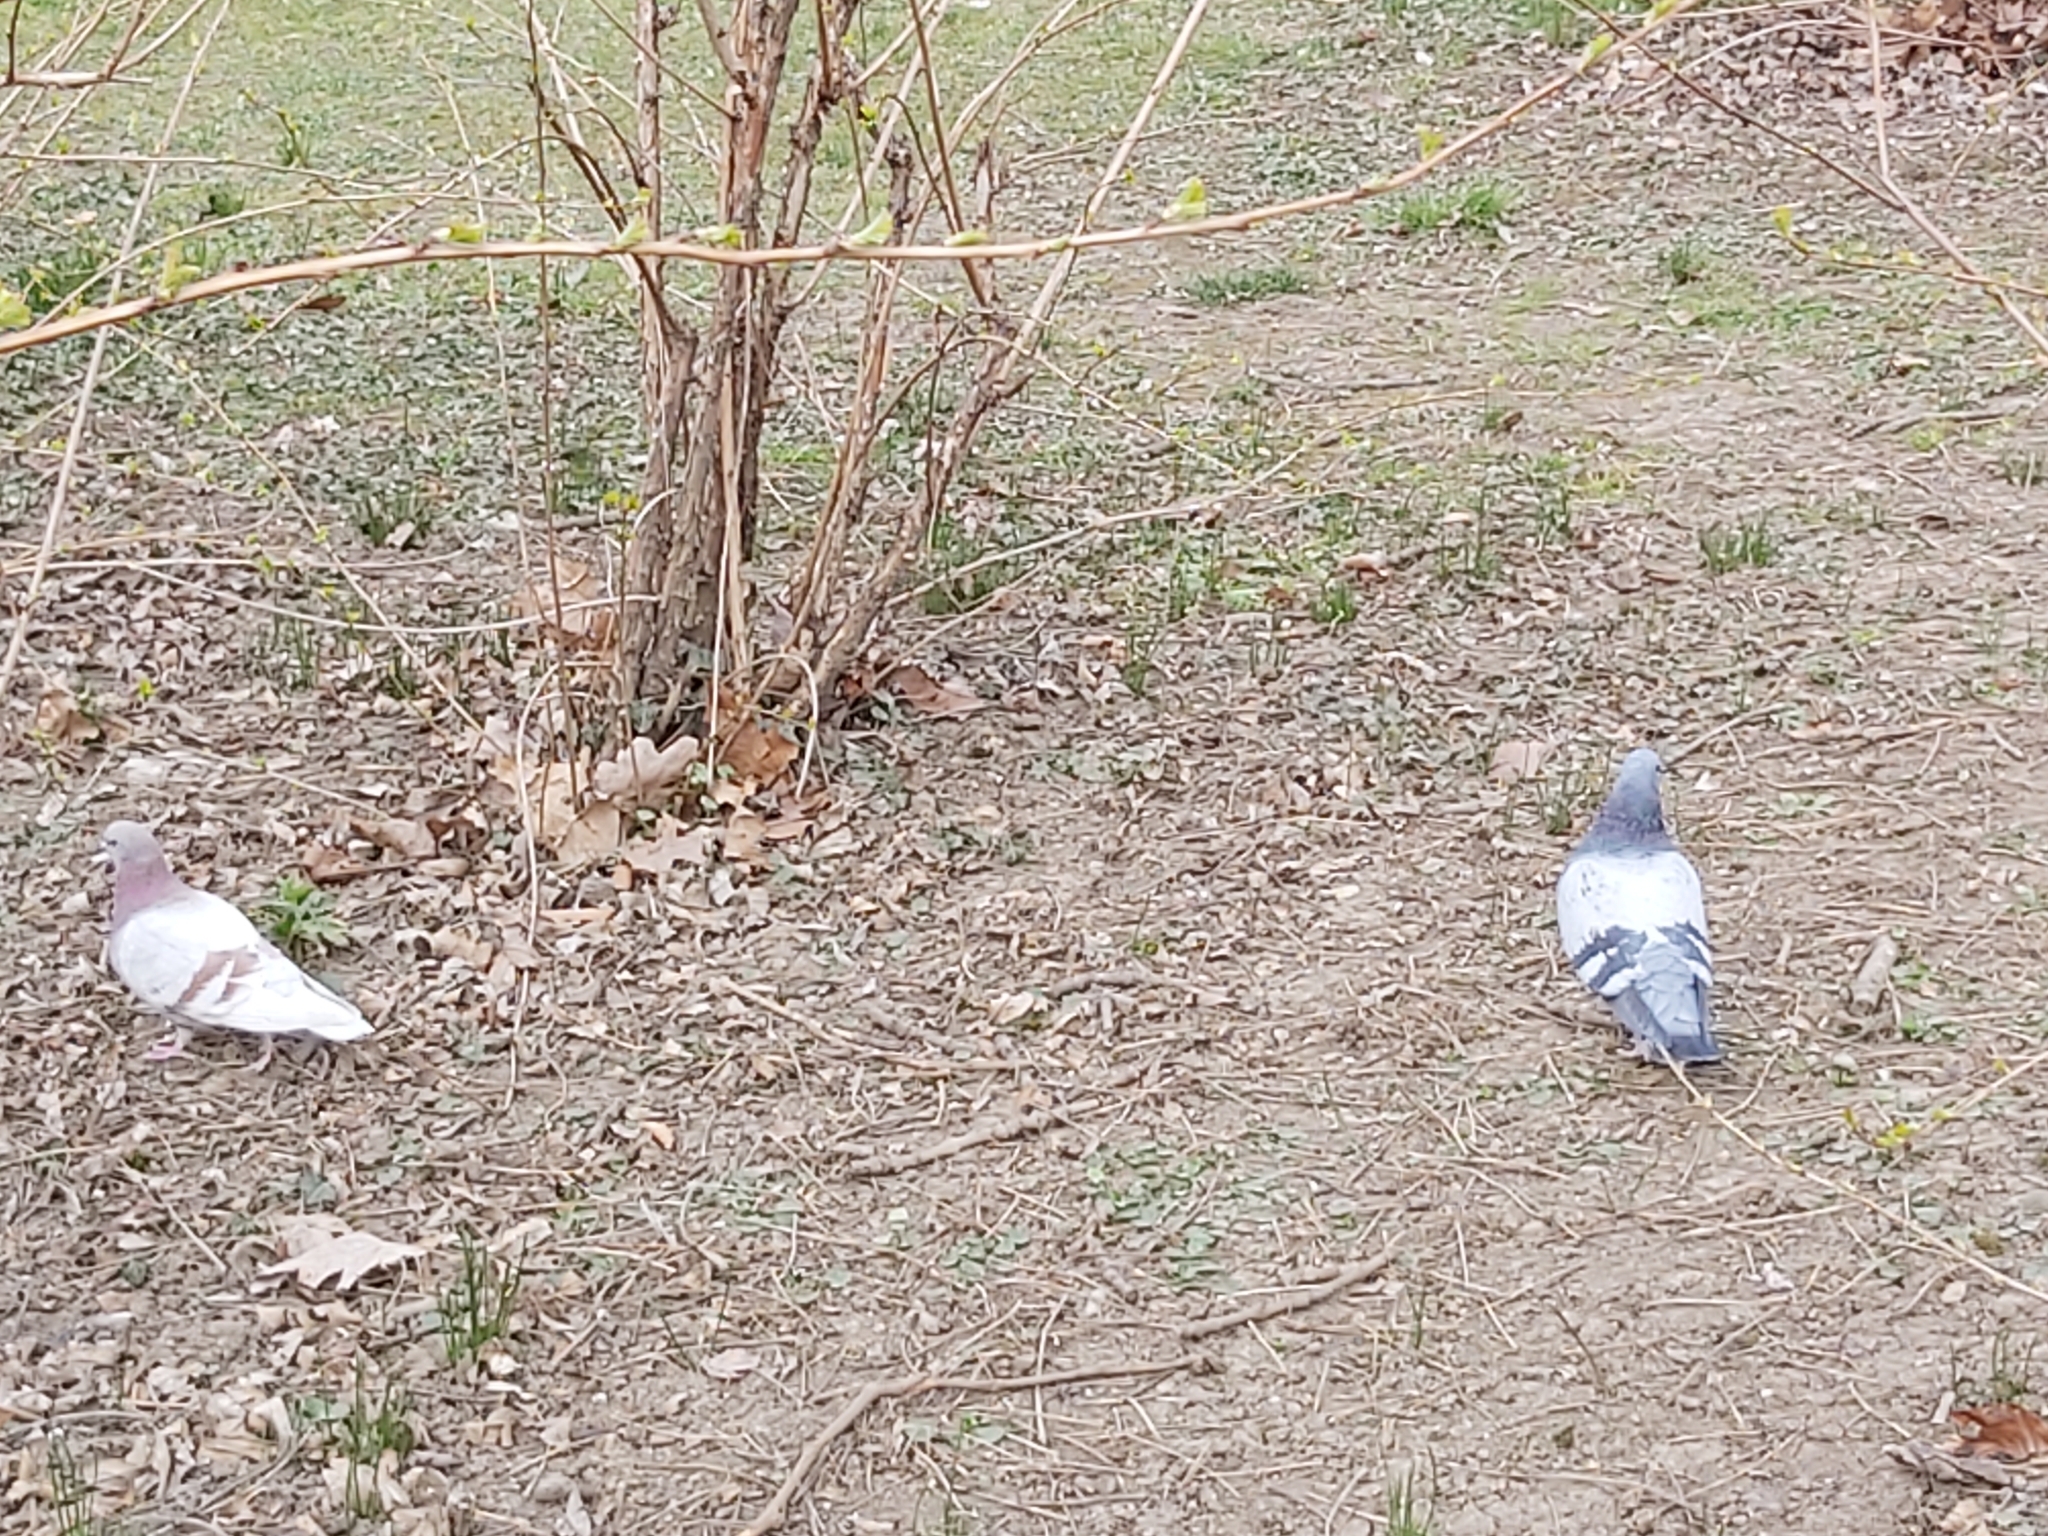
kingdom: Animalia
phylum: Chordata
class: Aves
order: Columbiformes
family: Columbidae
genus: Columba
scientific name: Columba livia
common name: Rock pigeon
